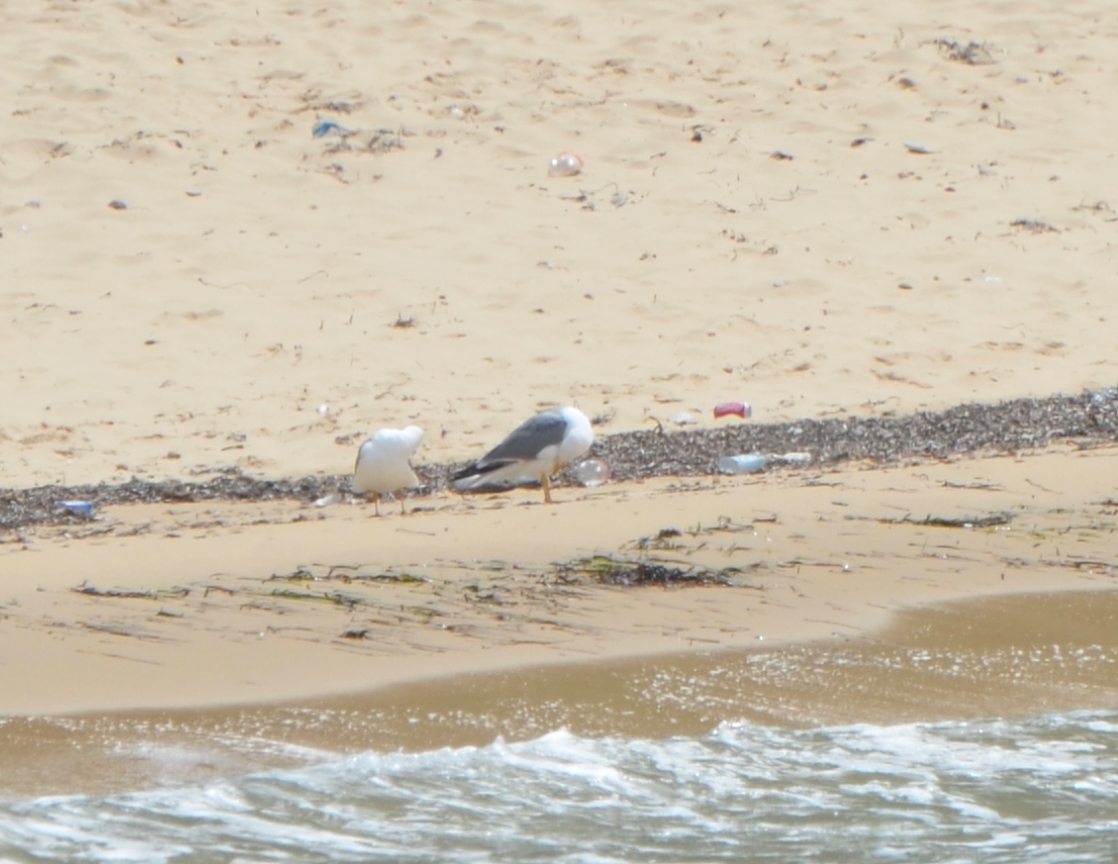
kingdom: Animalia
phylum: Chordata
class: Aves
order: Charadriiformes
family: Laridae
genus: Larus
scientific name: Larus michahellis
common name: Yellow-legged gull
